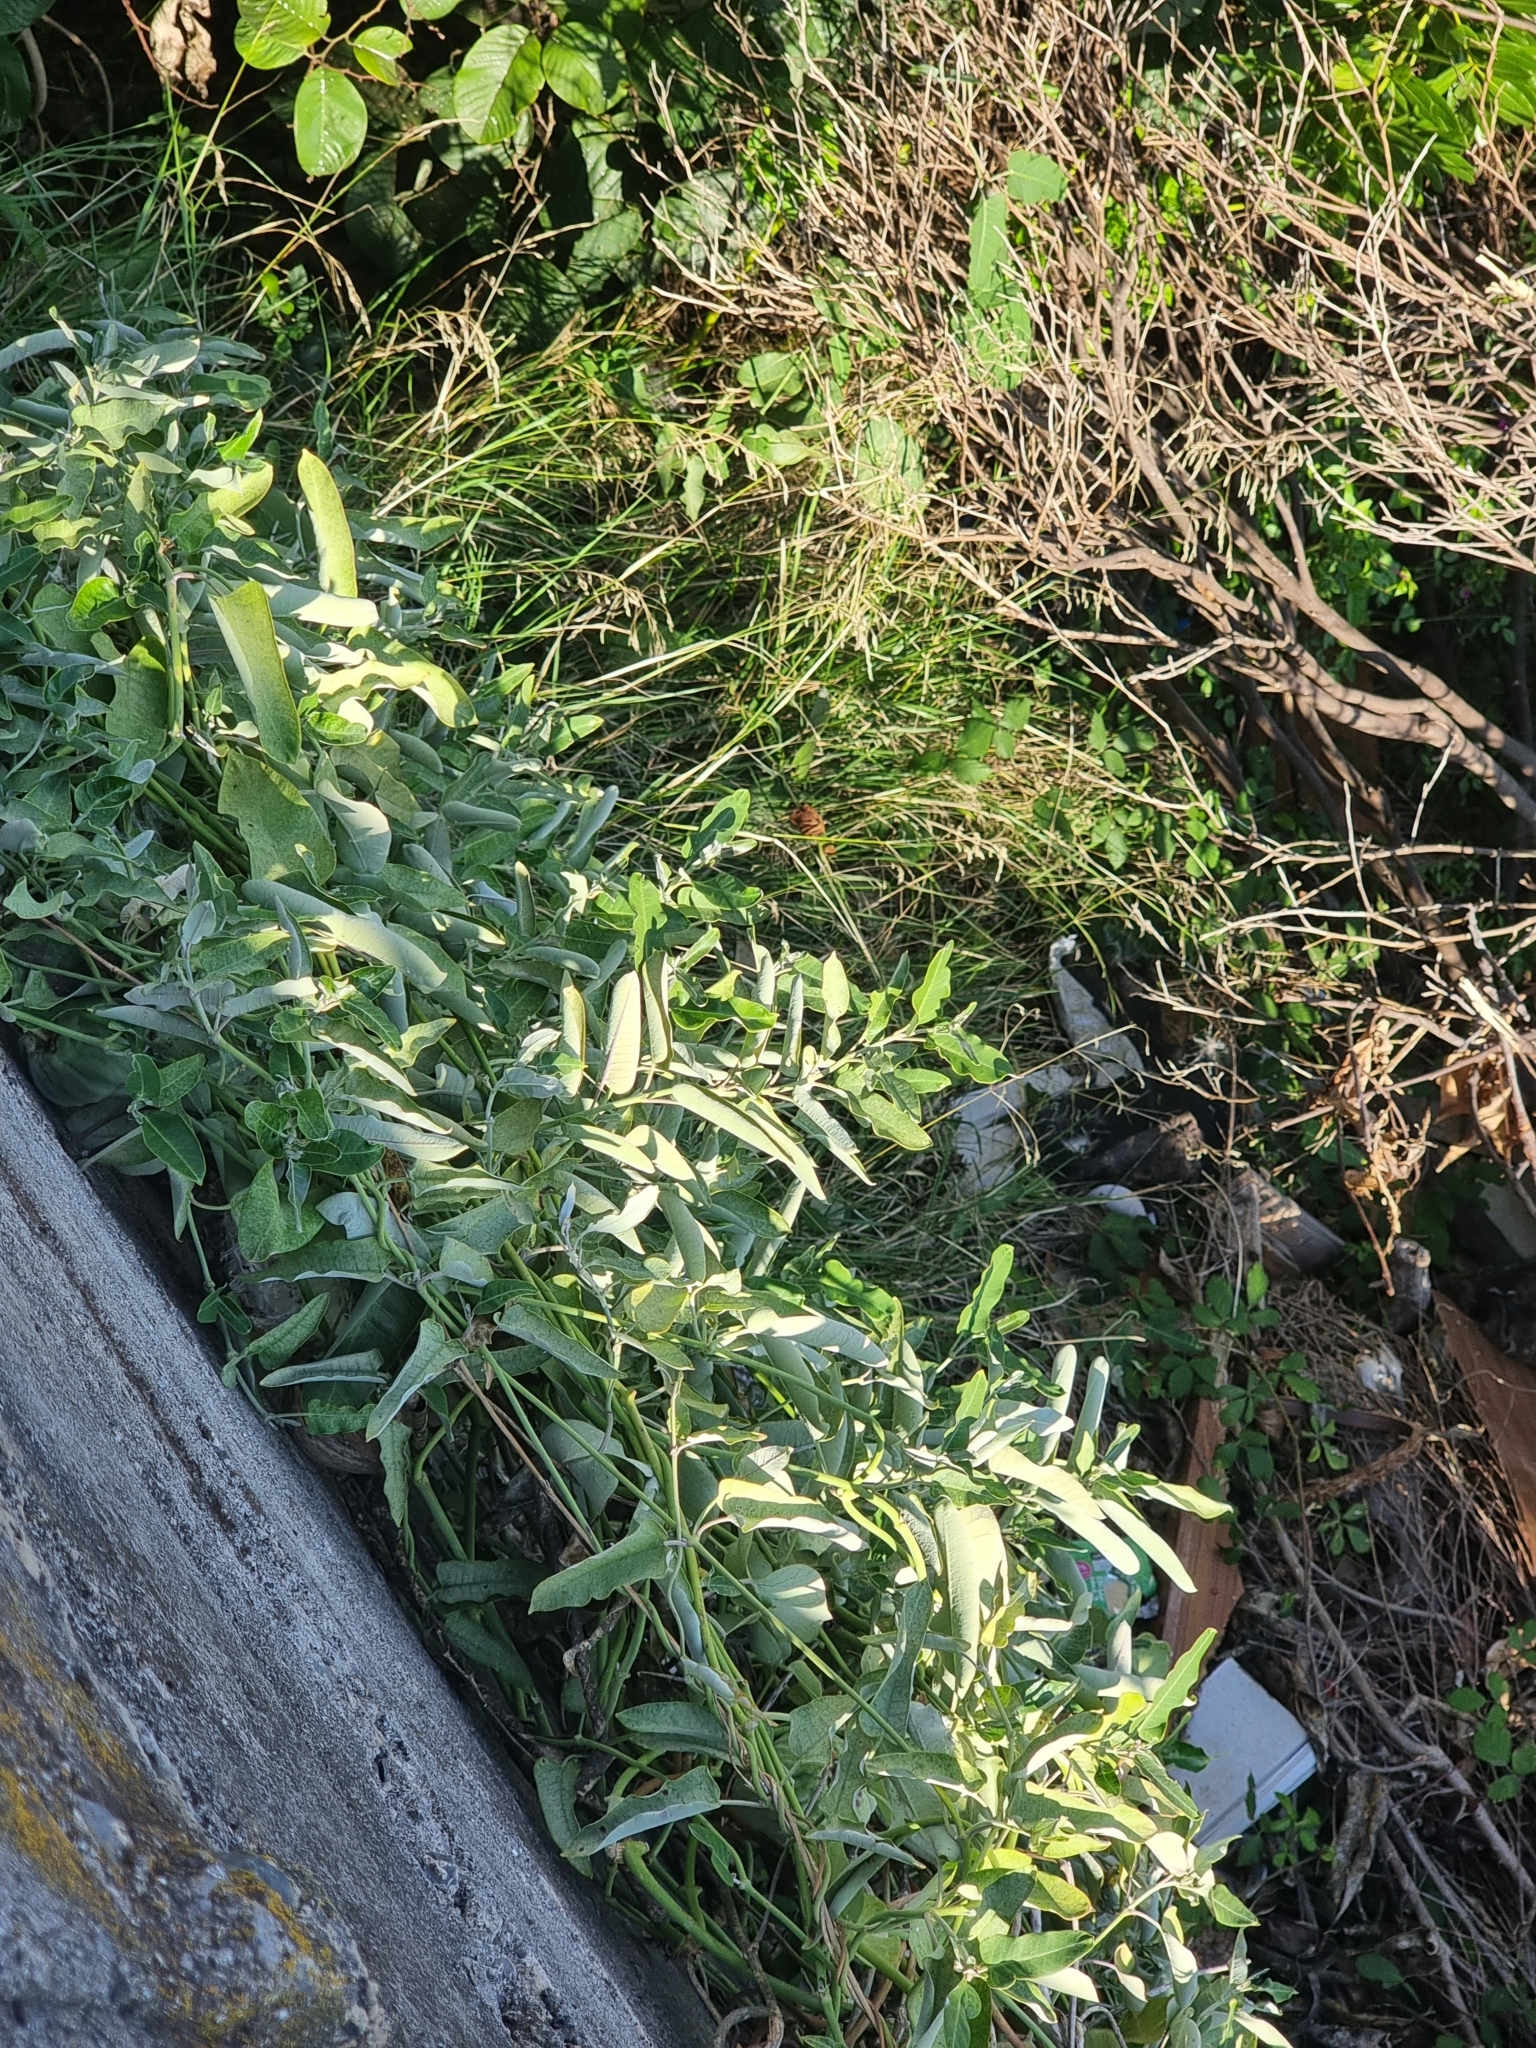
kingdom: Plantae
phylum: Tracheophyta
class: Magnoliopsida
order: Gentianales
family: Apocynaceae
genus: Araujia
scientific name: Araujia sericifera
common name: White bladderflower
